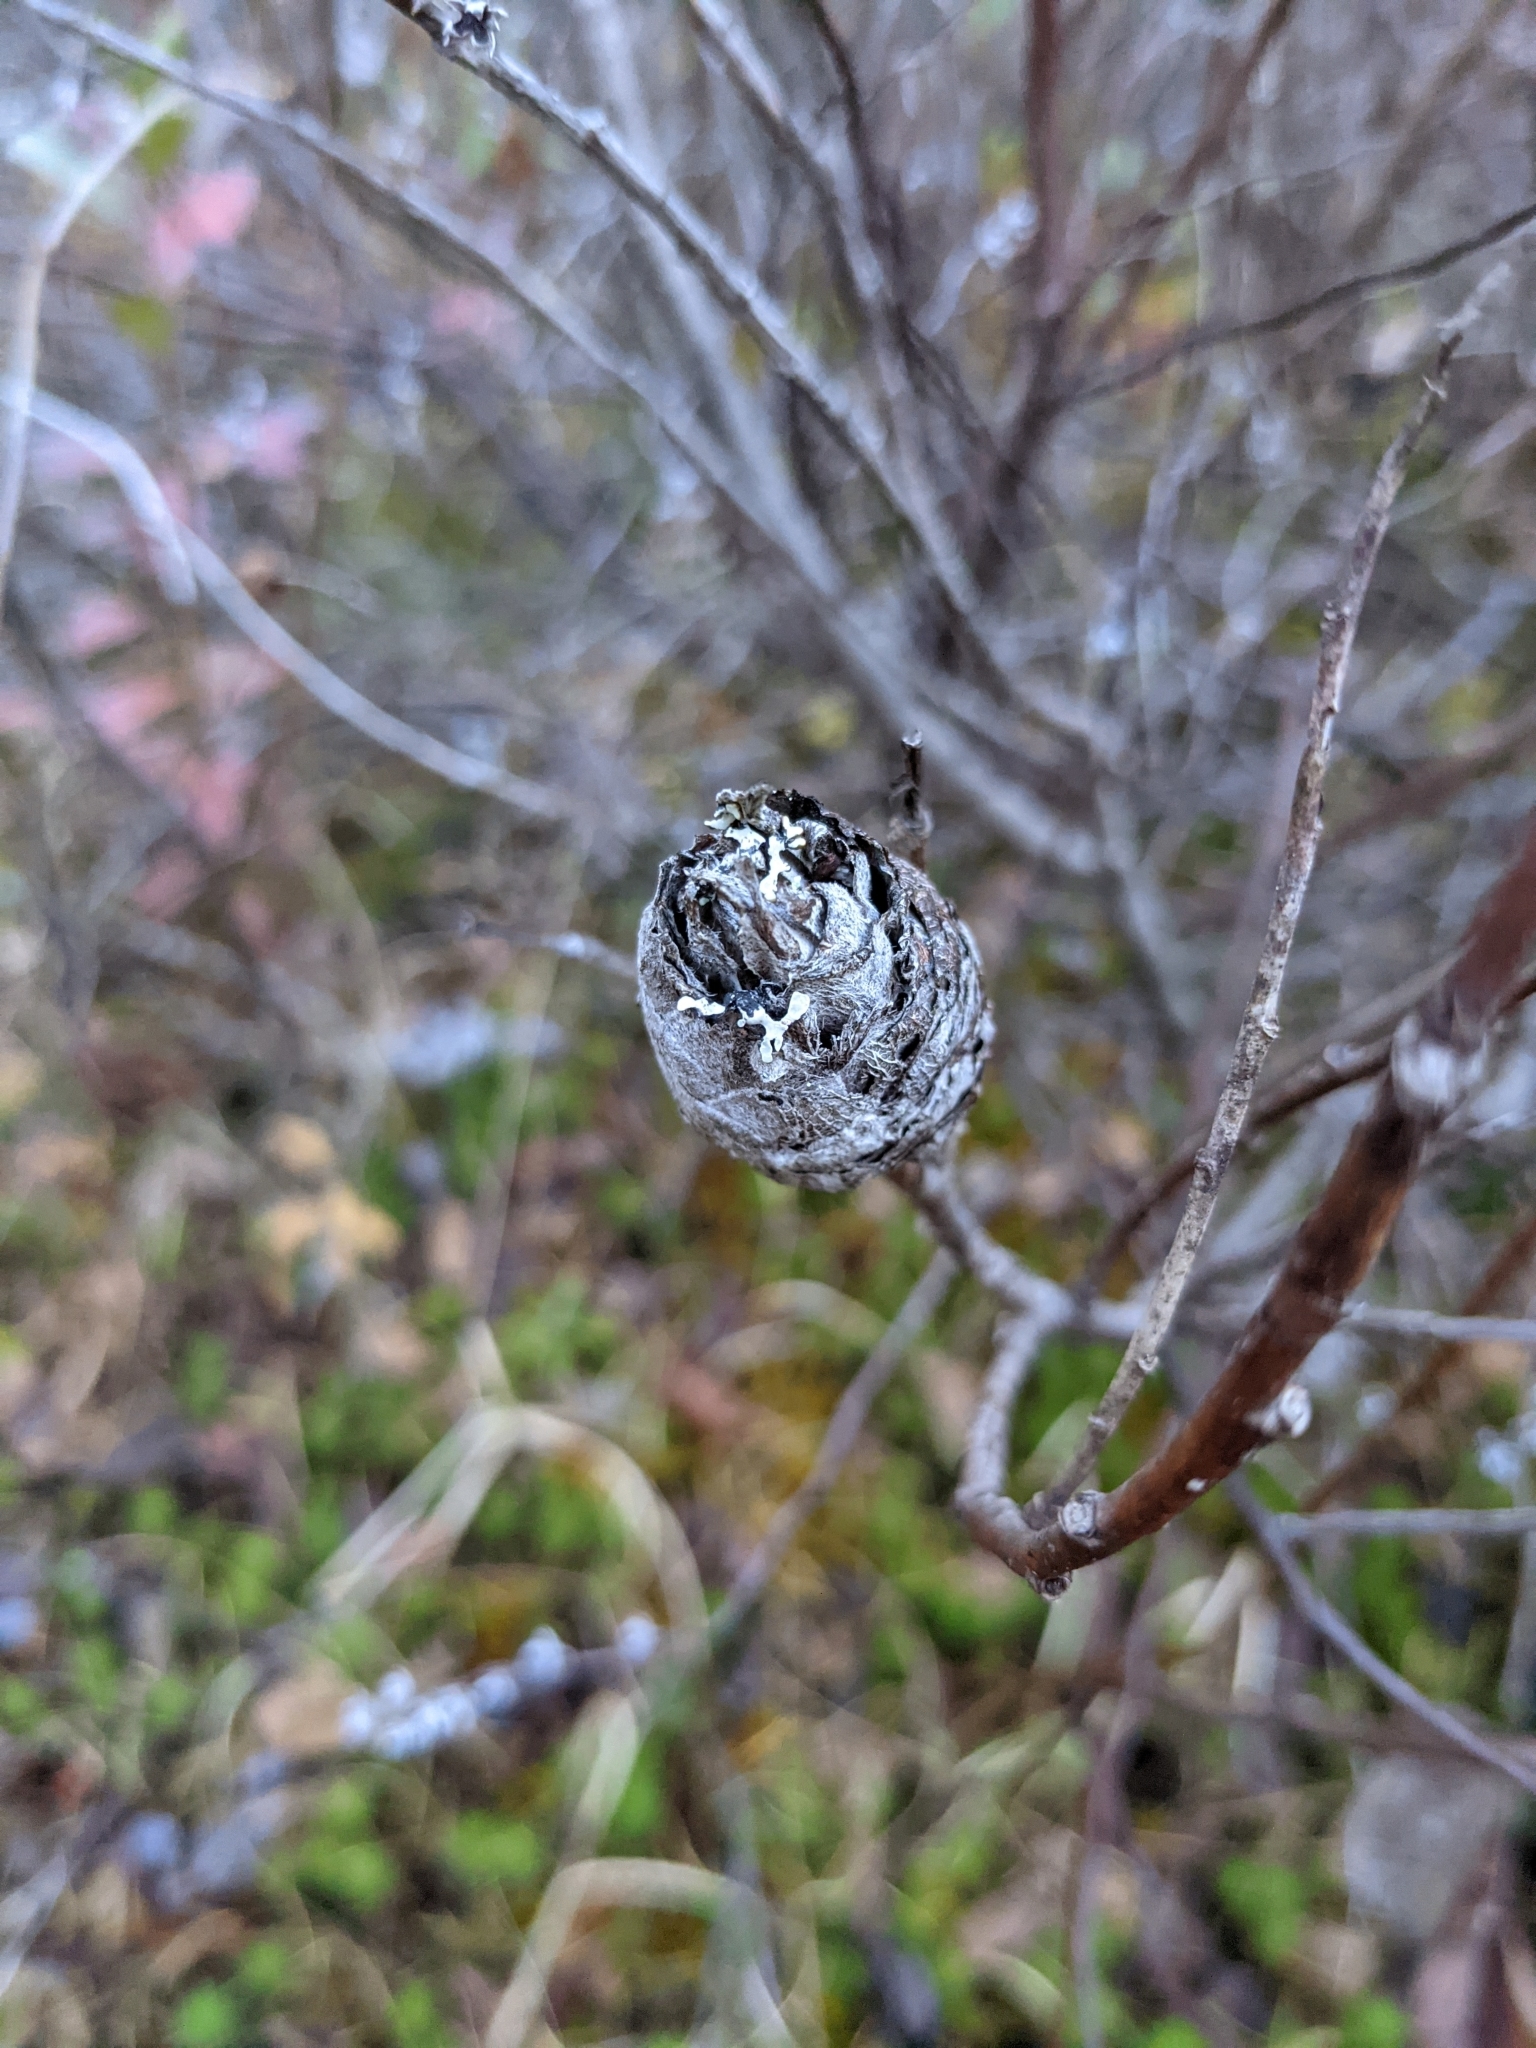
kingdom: Animalia
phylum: Arthropoda
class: Insecta
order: Diptera
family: Cecidomyiidae
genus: Rabdophaga
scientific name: Rabdophaga strobiloides
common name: Willow pinecone gall midge
